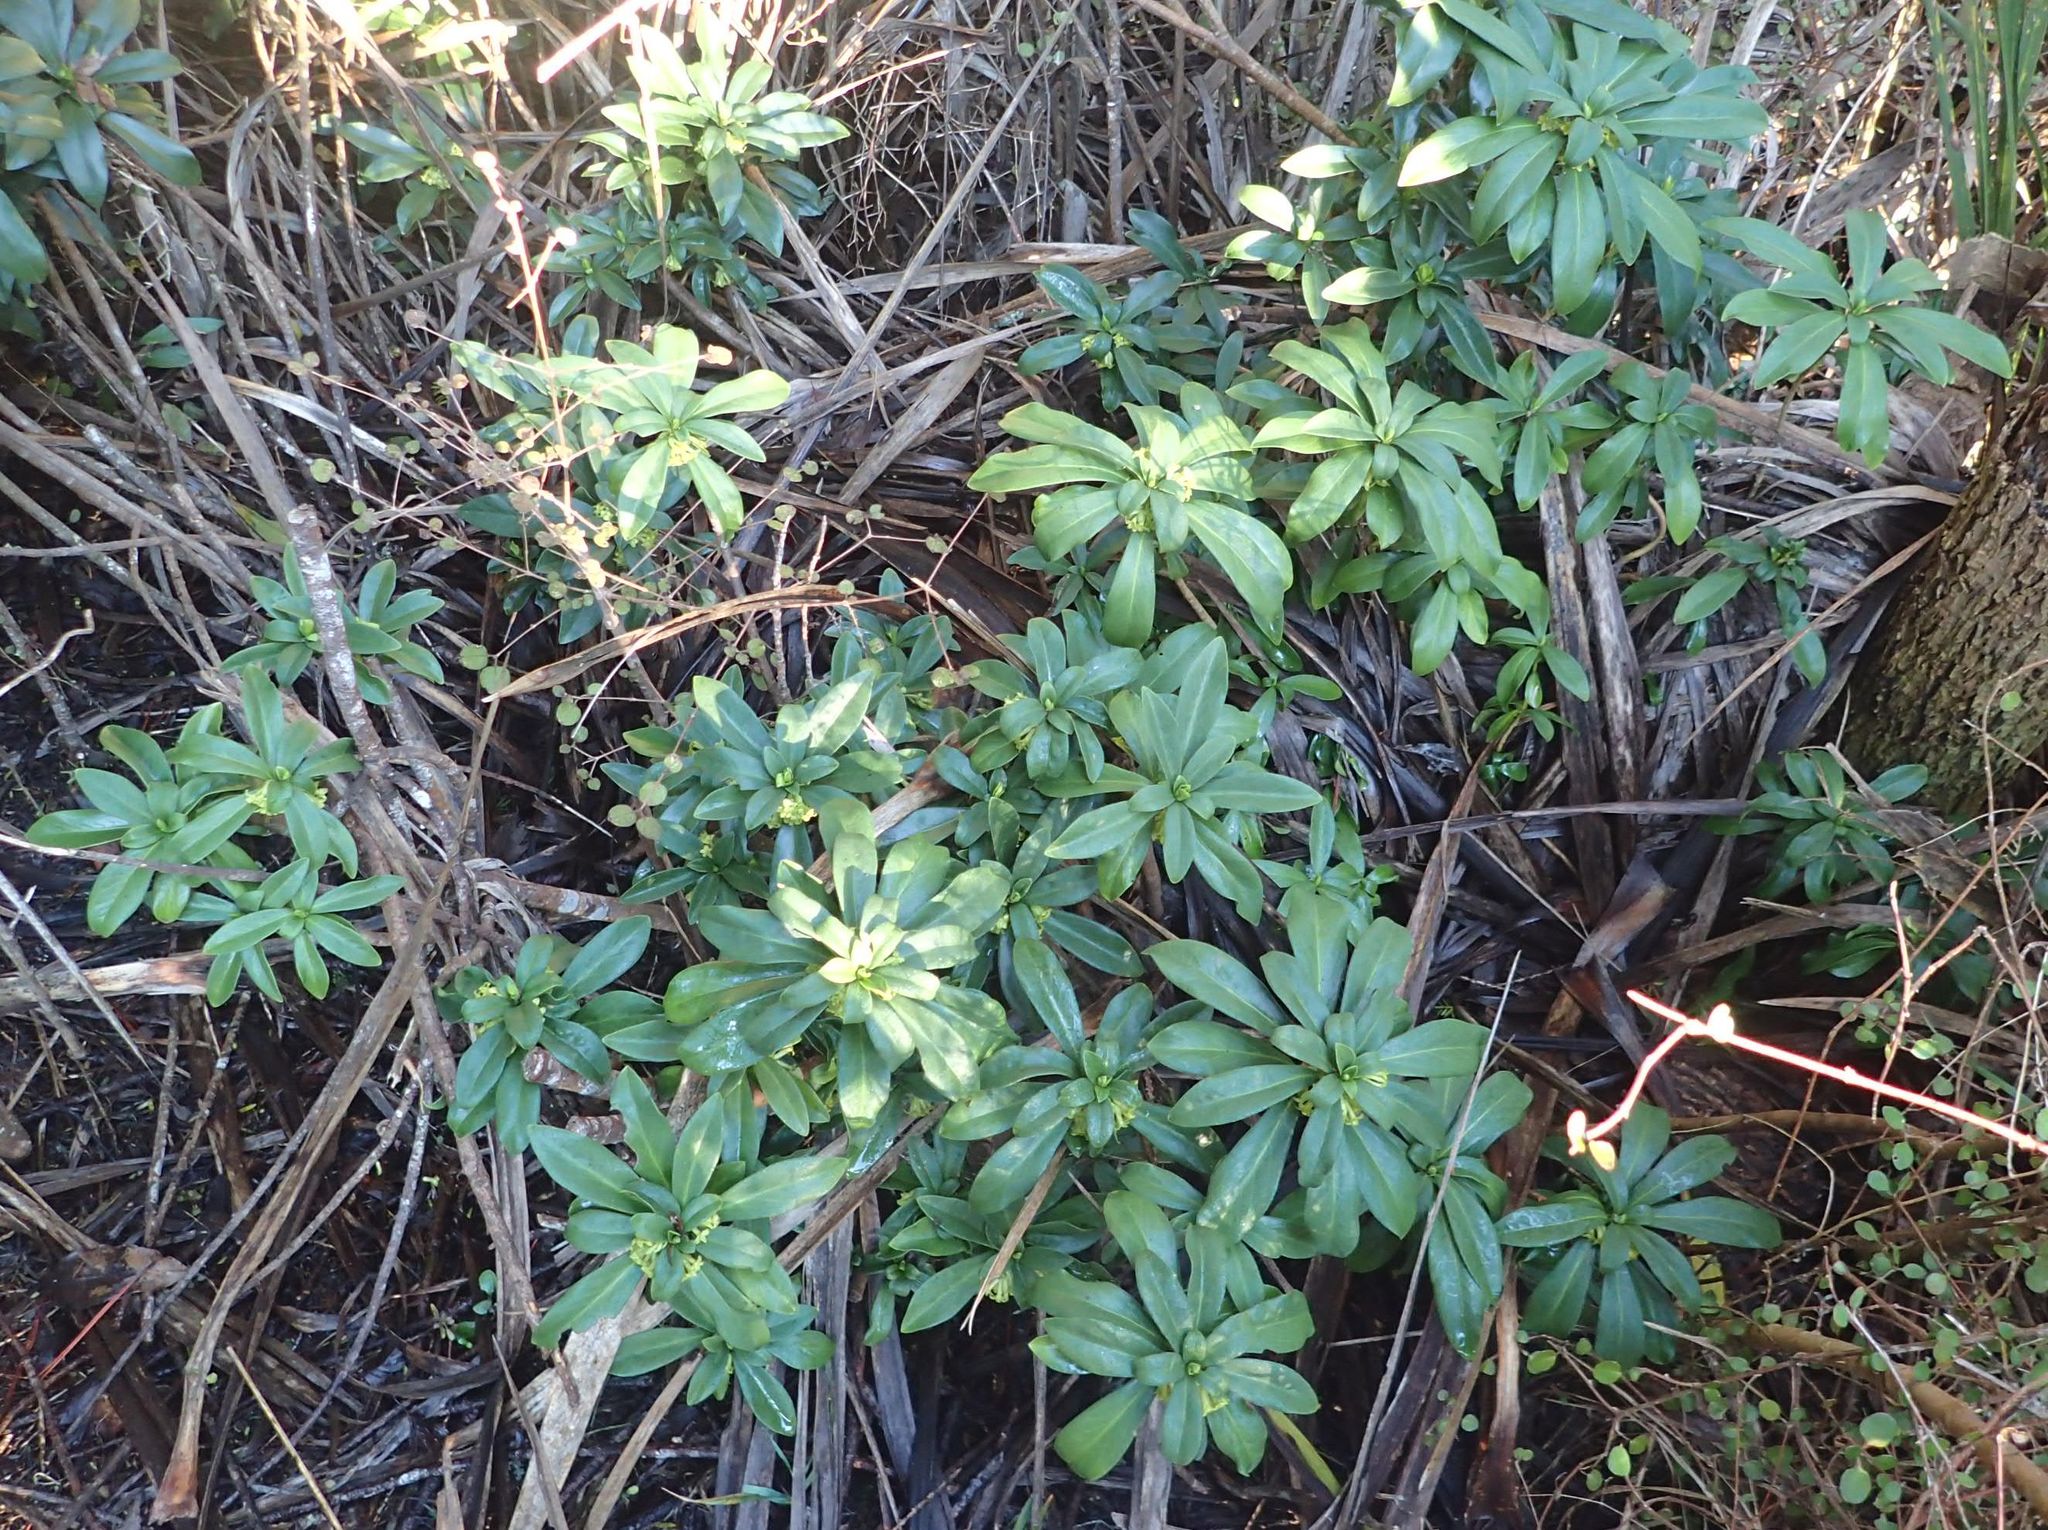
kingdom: Plantae
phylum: Tracheophyta
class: Magnoliopsida
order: Malvales
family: Thymelaeaceae
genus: Daphne
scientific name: Daphne laureola
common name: Spurge-laurel
